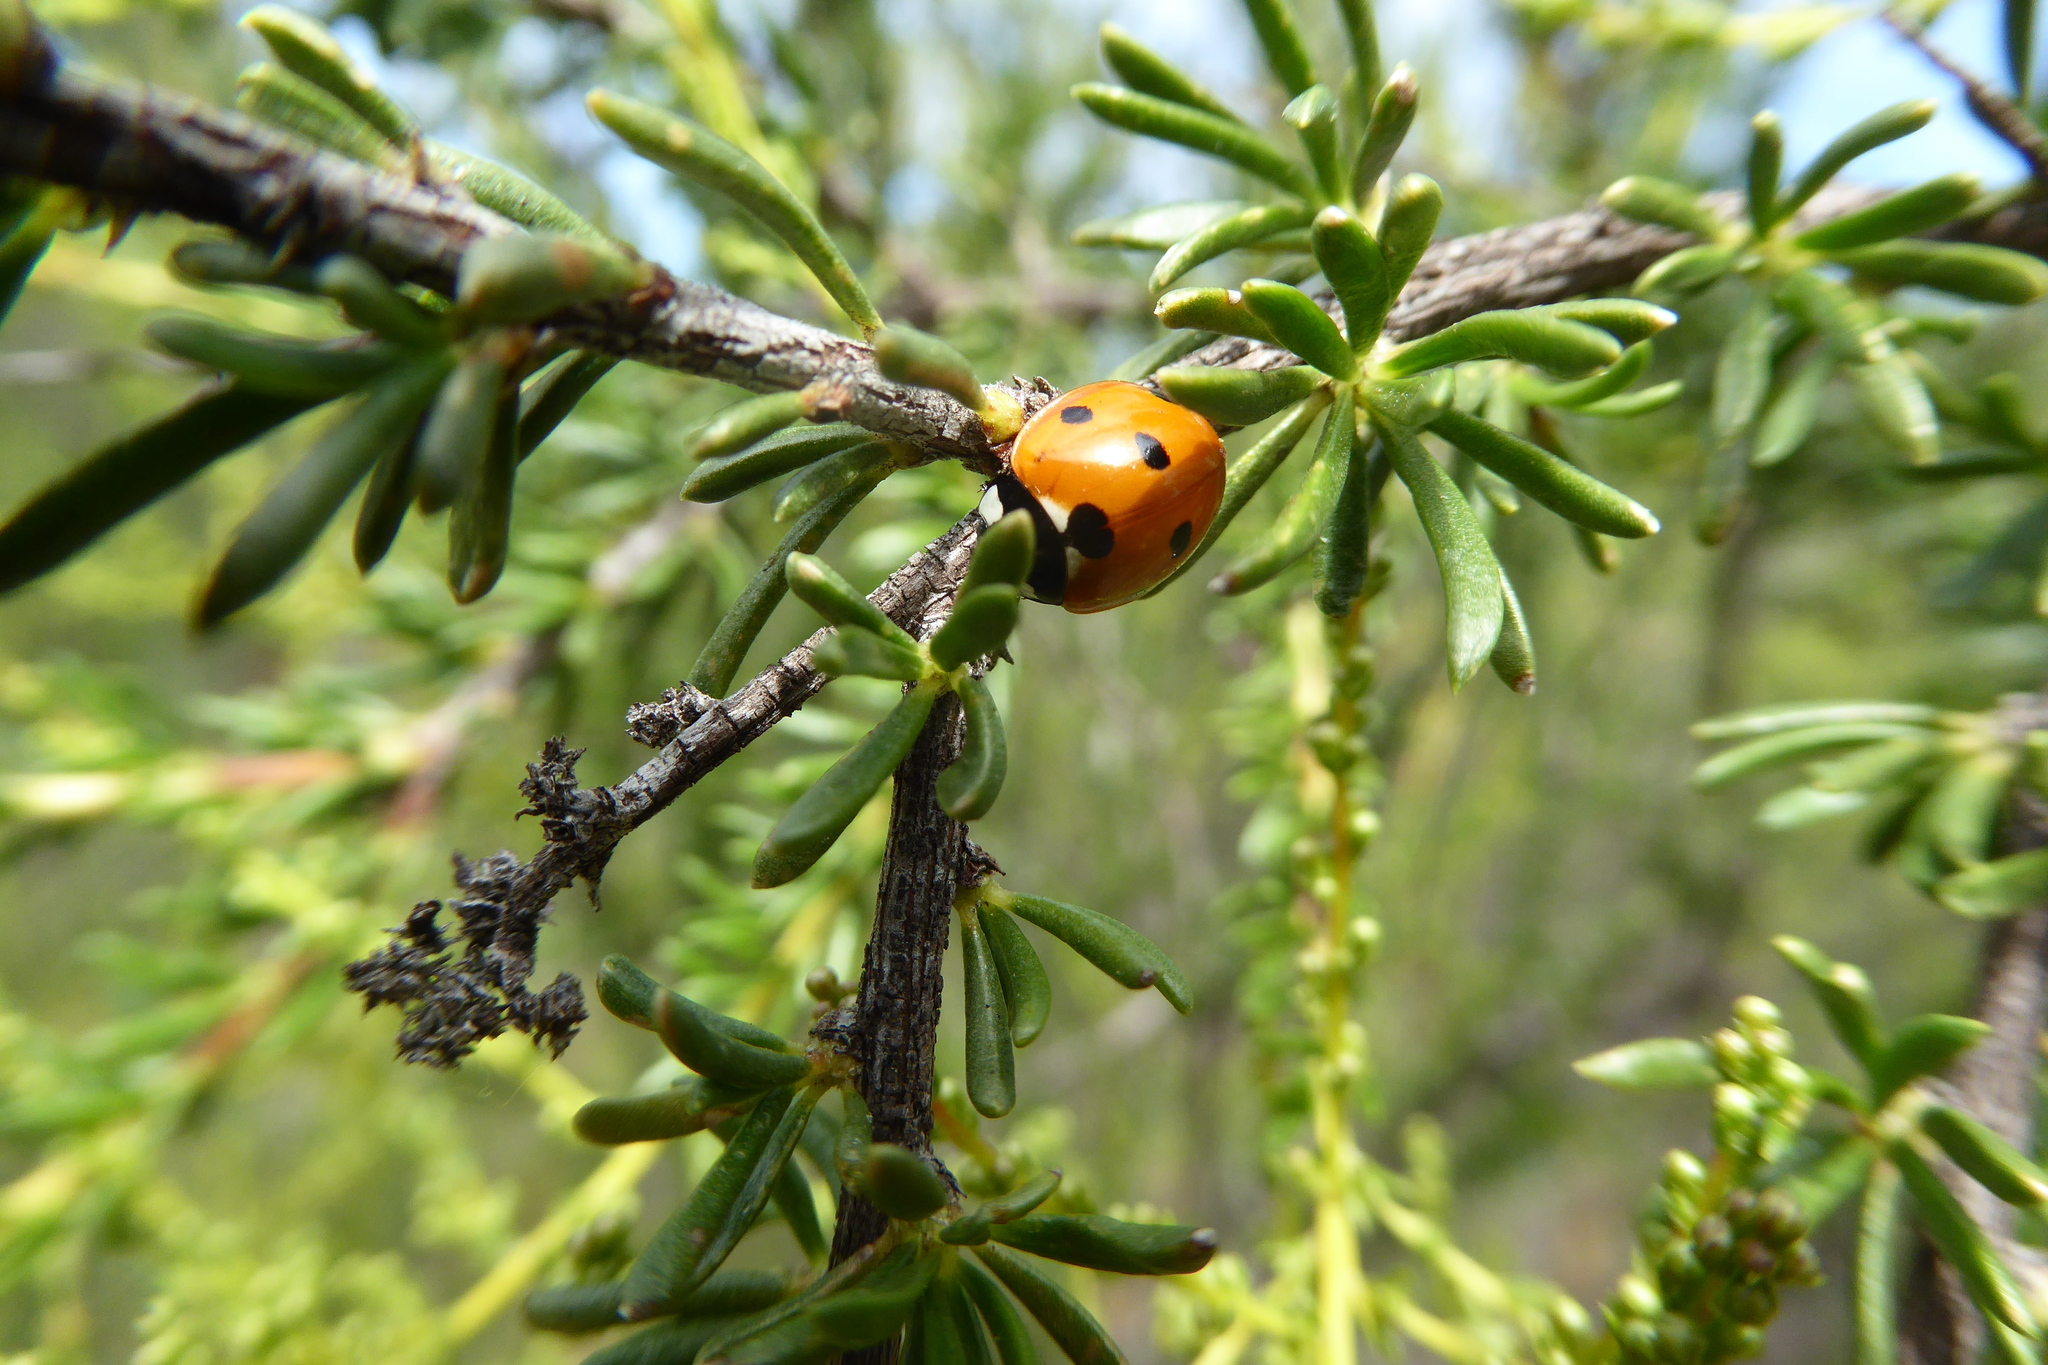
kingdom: Animalia
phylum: Arthropoda
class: Insecta
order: Coleoptera
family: Coccinellidae
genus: Coccinella
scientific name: Coccinella septempunctata
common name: Sevenspotted lady beetle
